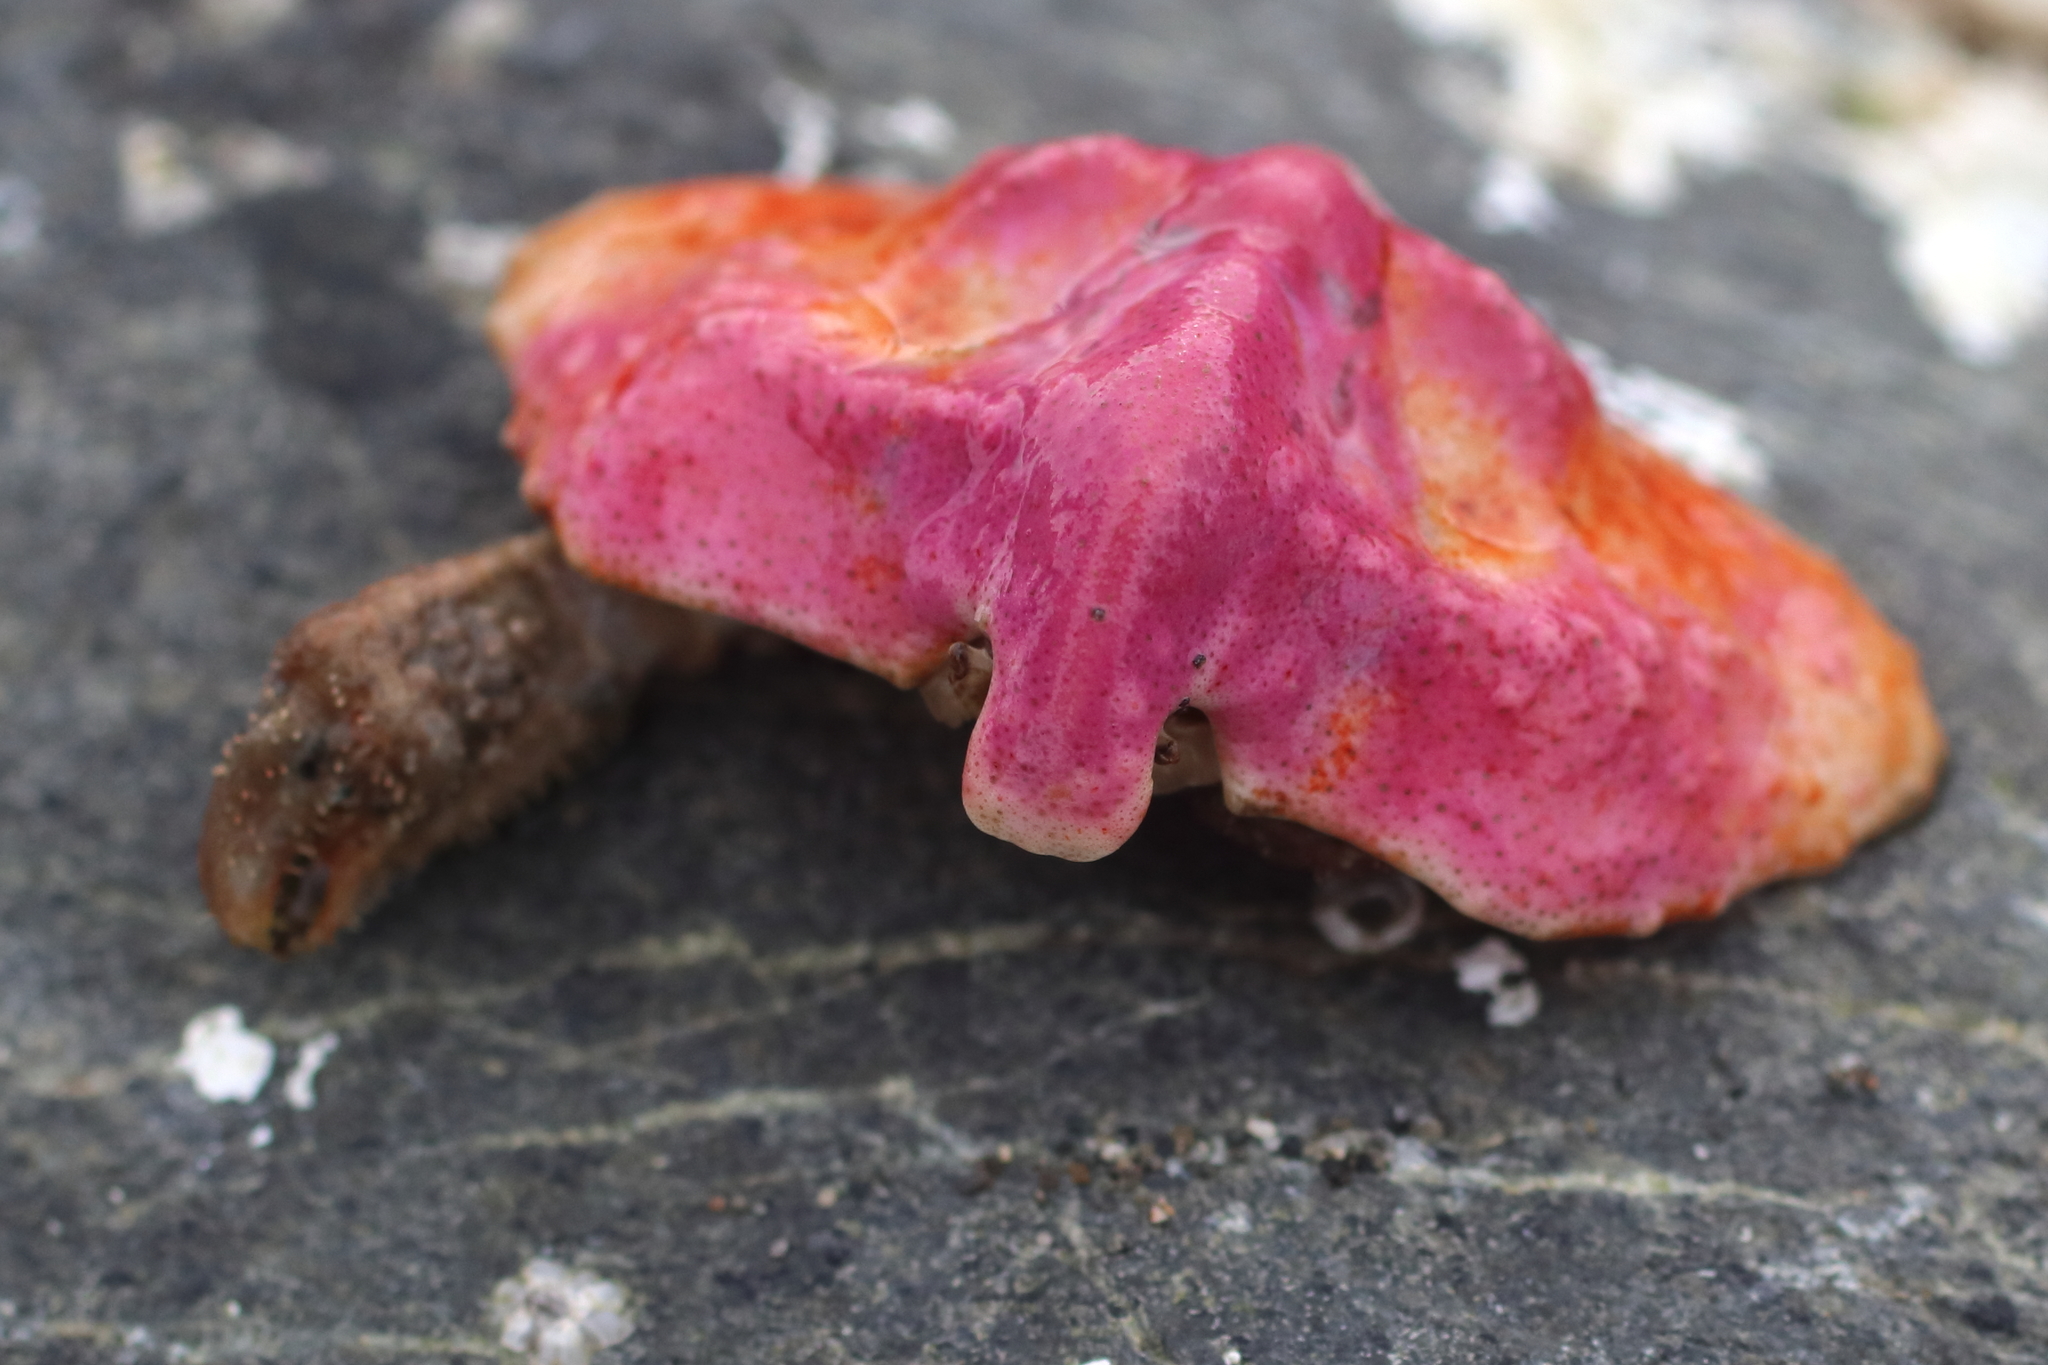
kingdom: Animalia
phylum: Arthropoda
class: Malacostraca
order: Decapoda
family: Lithodidae
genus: Cryptolithodes
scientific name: Cryptolithodes typicus
